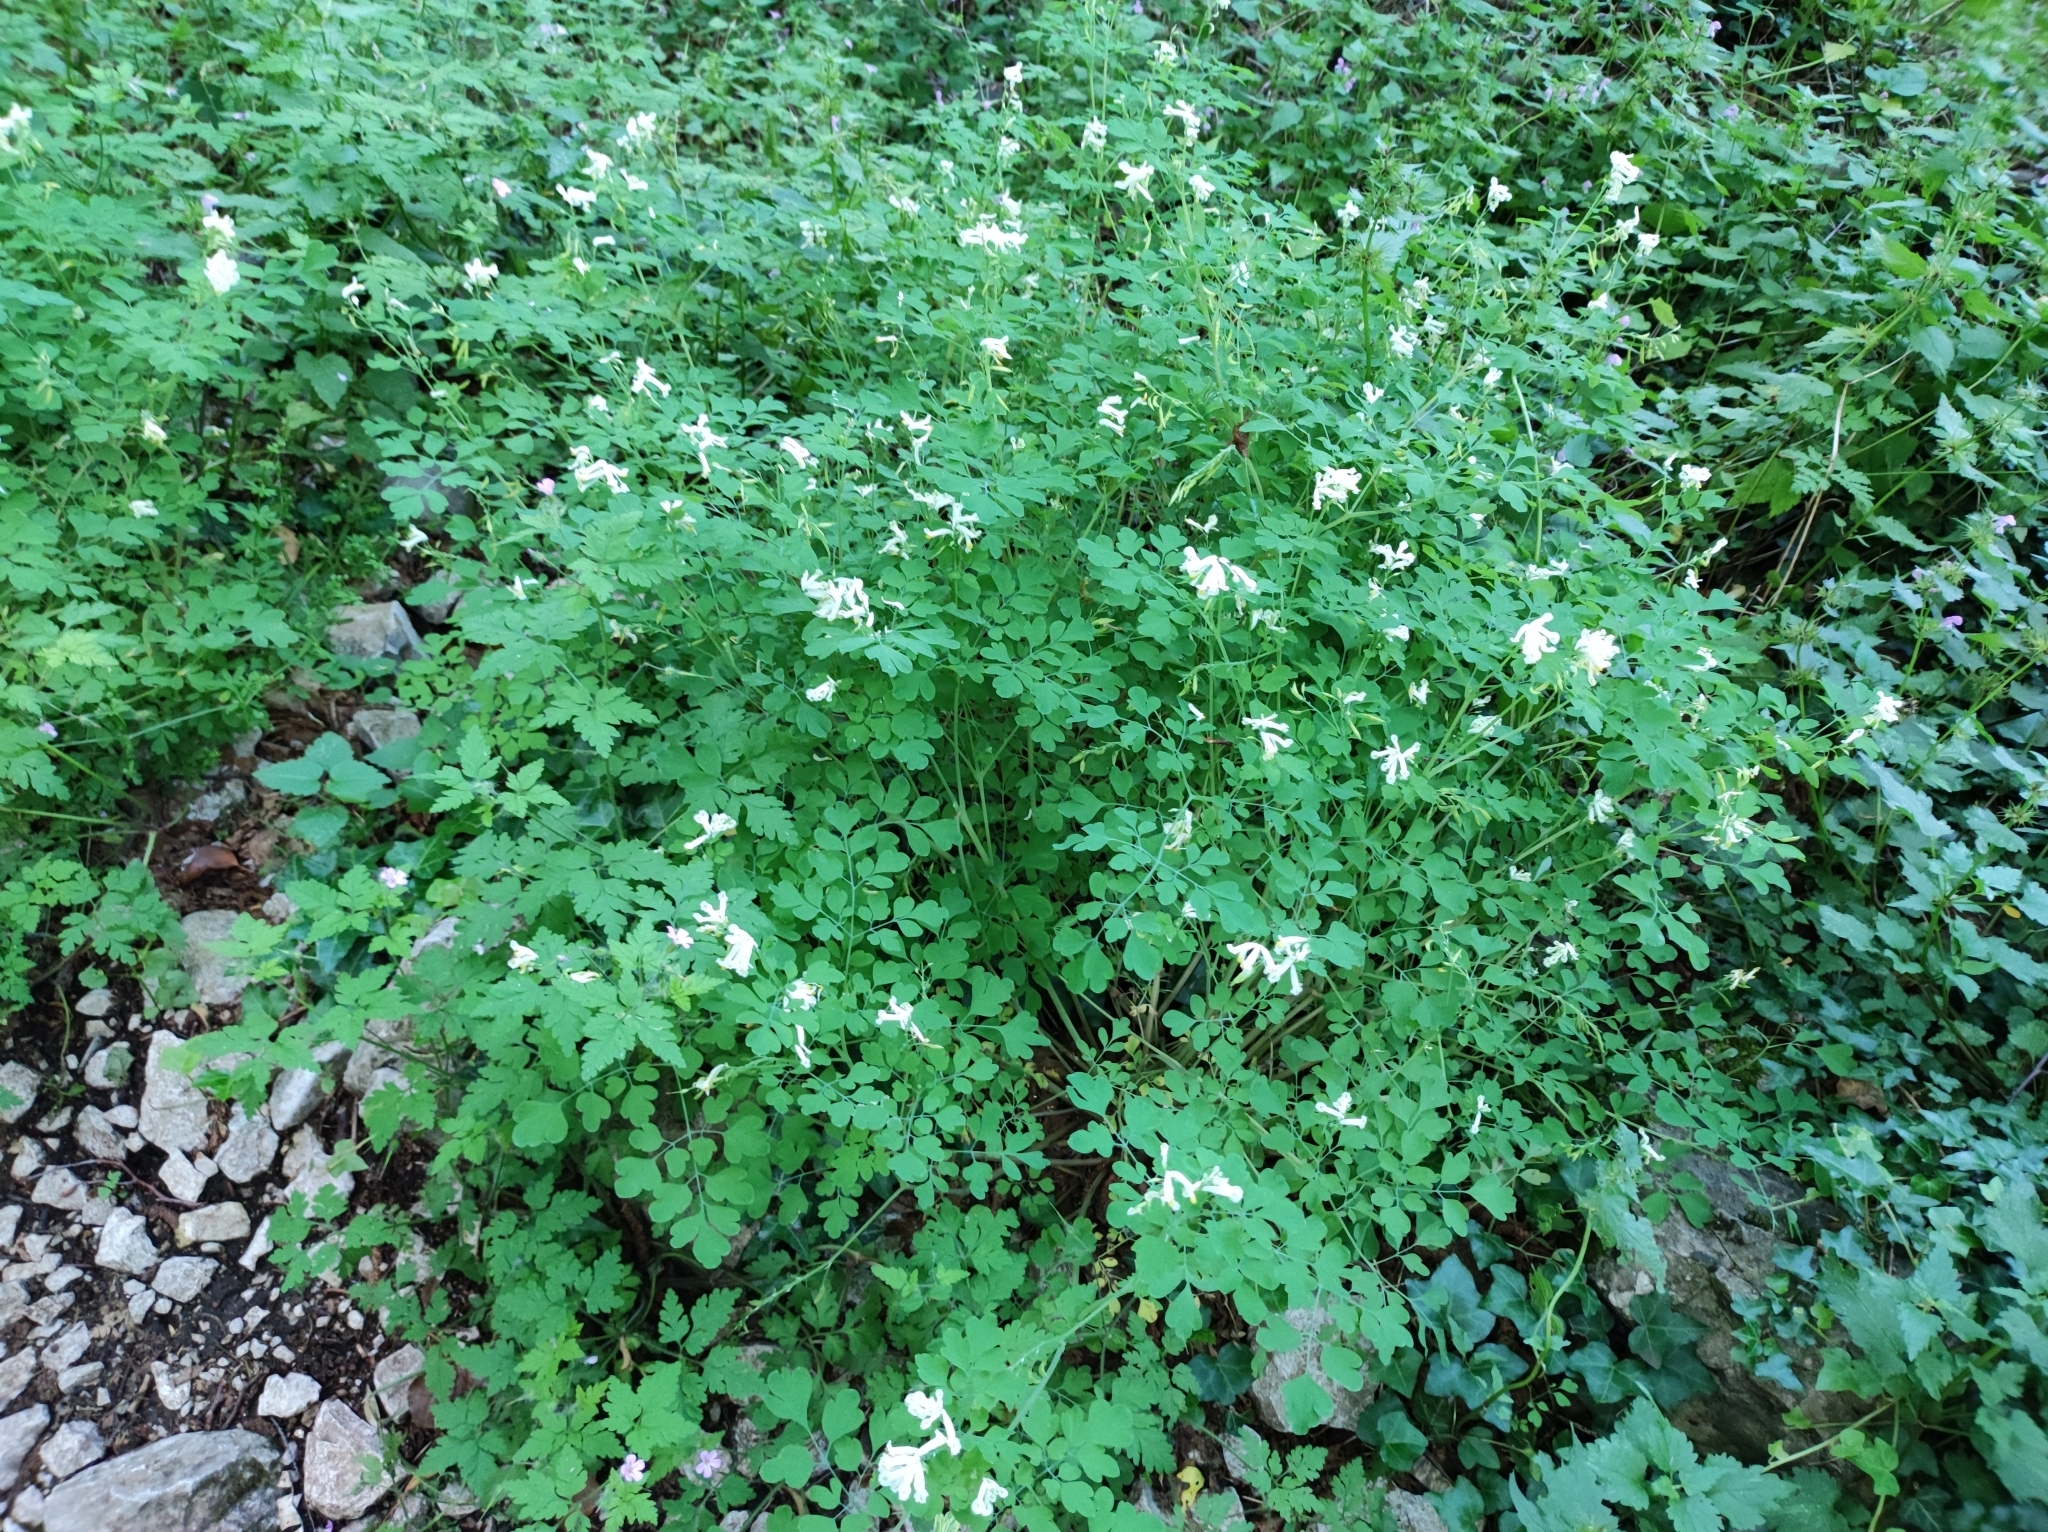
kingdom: Plantae
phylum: Tracheophyta
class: Magnoliopsida
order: Ranunculales
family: Papaveraceae
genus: Pseudofumaria
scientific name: Pseudofumaria alba
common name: Pale corydalis
